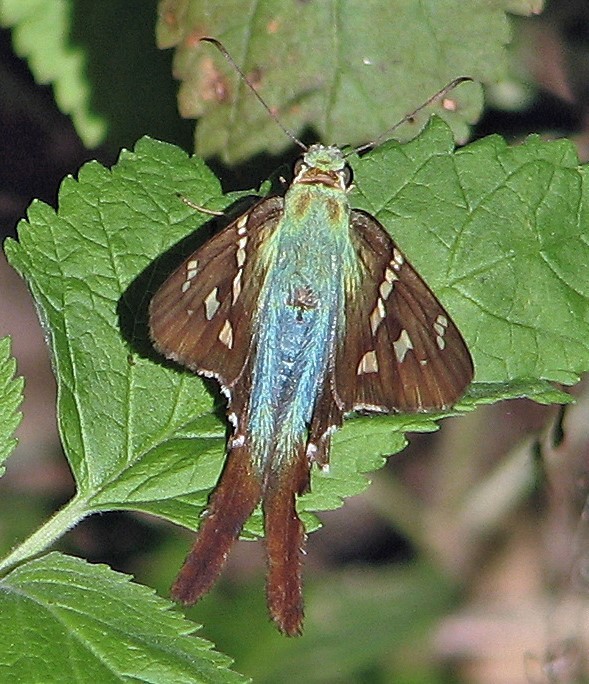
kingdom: Animalia
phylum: Arthropoda
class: Insecta
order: Lepidoptera
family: Hesperiidae
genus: Urbanus
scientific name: Urbanus proteus
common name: Long-tailed skipper
